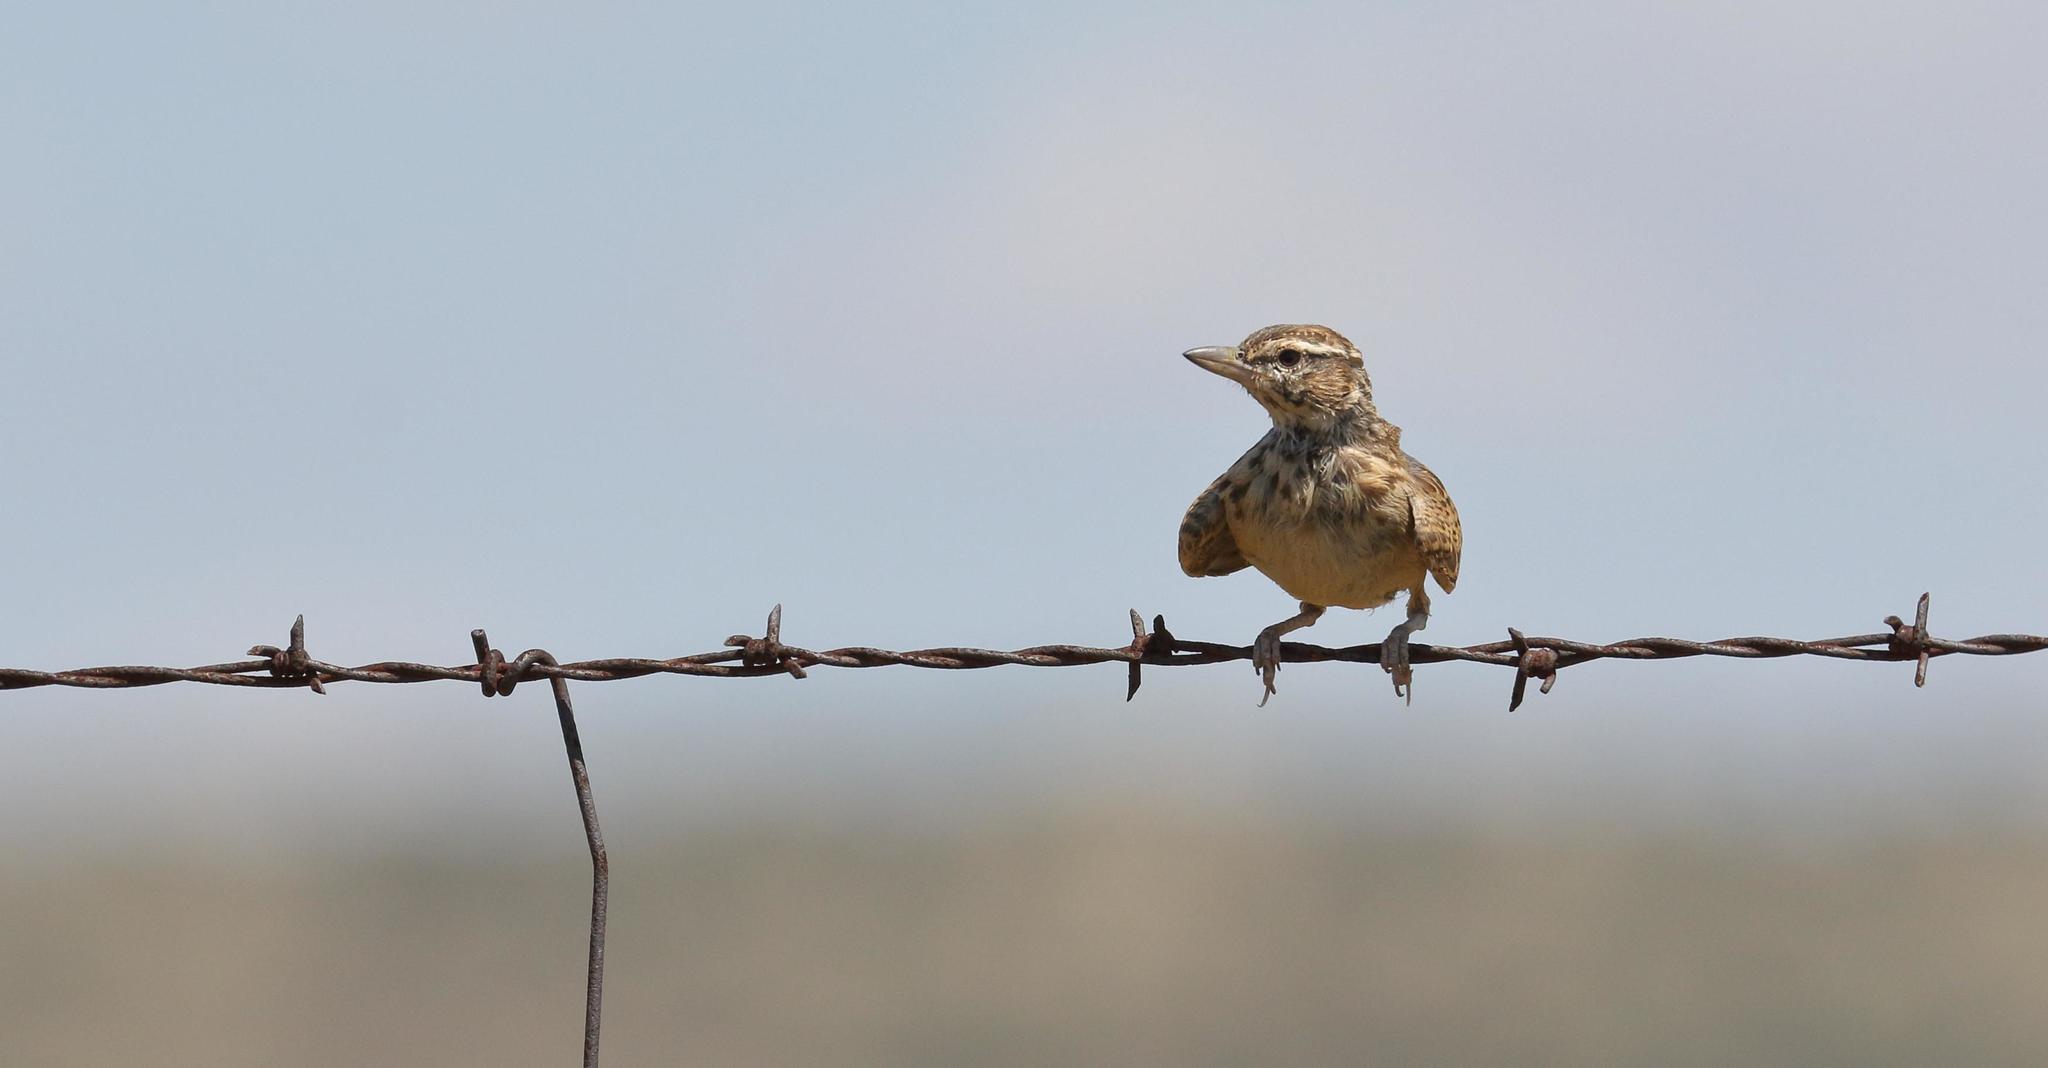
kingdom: Animalia
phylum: Chordata
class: Aves
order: Passeriformes
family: Alaudidae
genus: Calendulauda
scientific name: Calendulauda sabota
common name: Sabota lark
